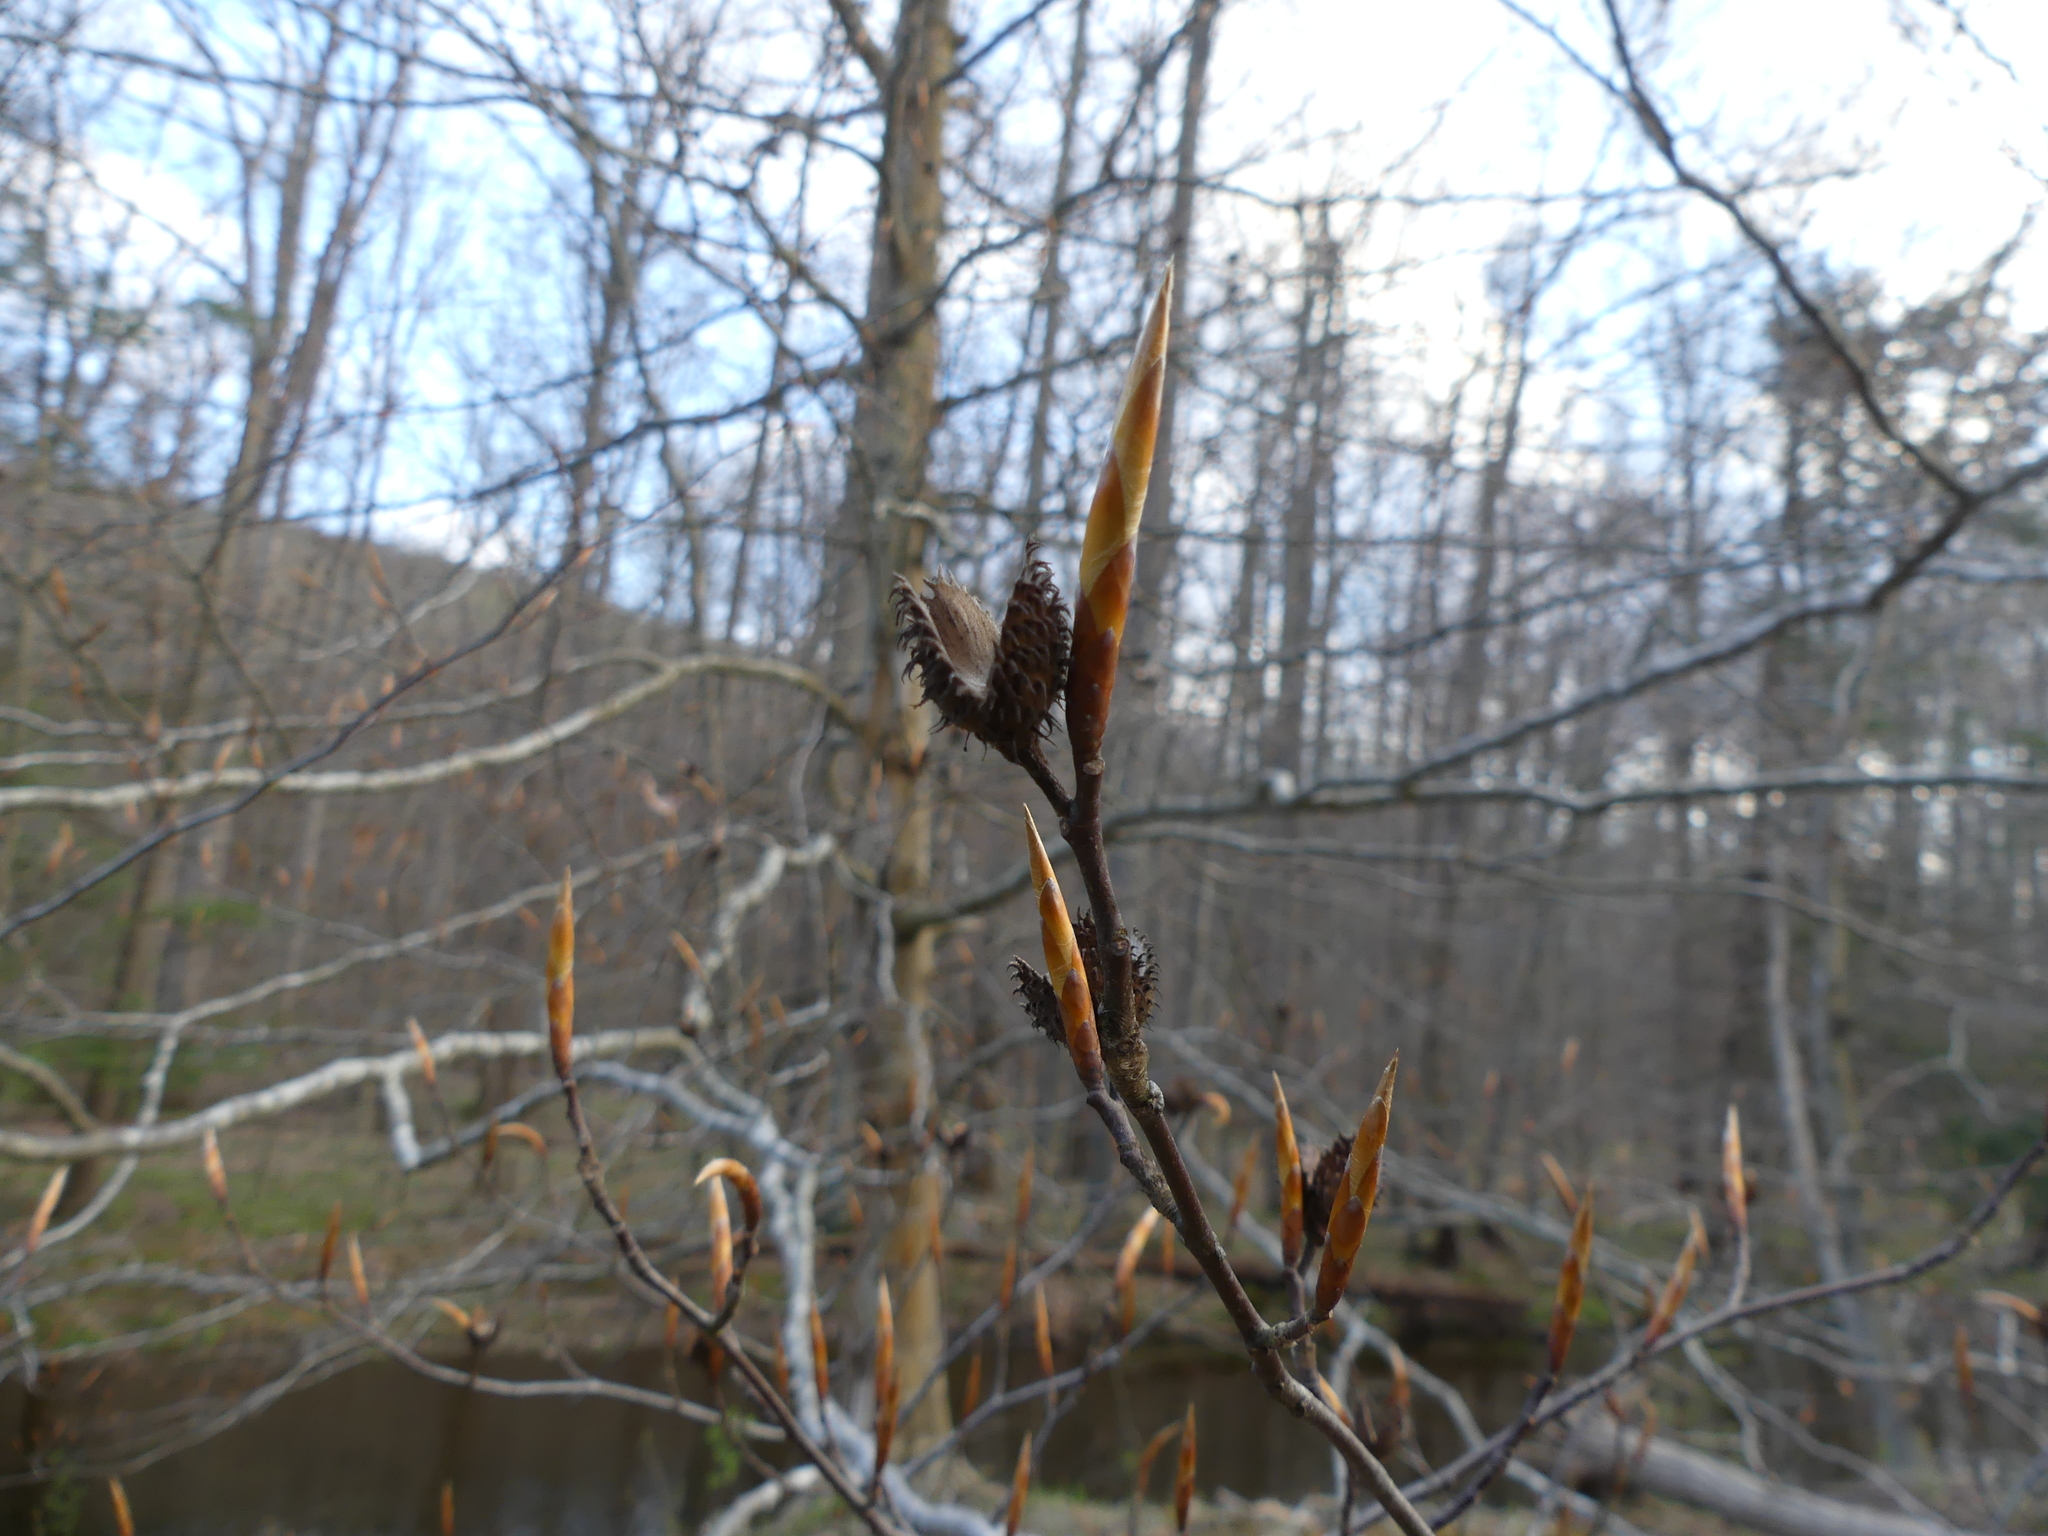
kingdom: Plantae
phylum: Tracheophyta
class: Magnoliopsida
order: Fagales
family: Fagaceae
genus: Fagus
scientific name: Fagus grandifolia
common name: American beech
